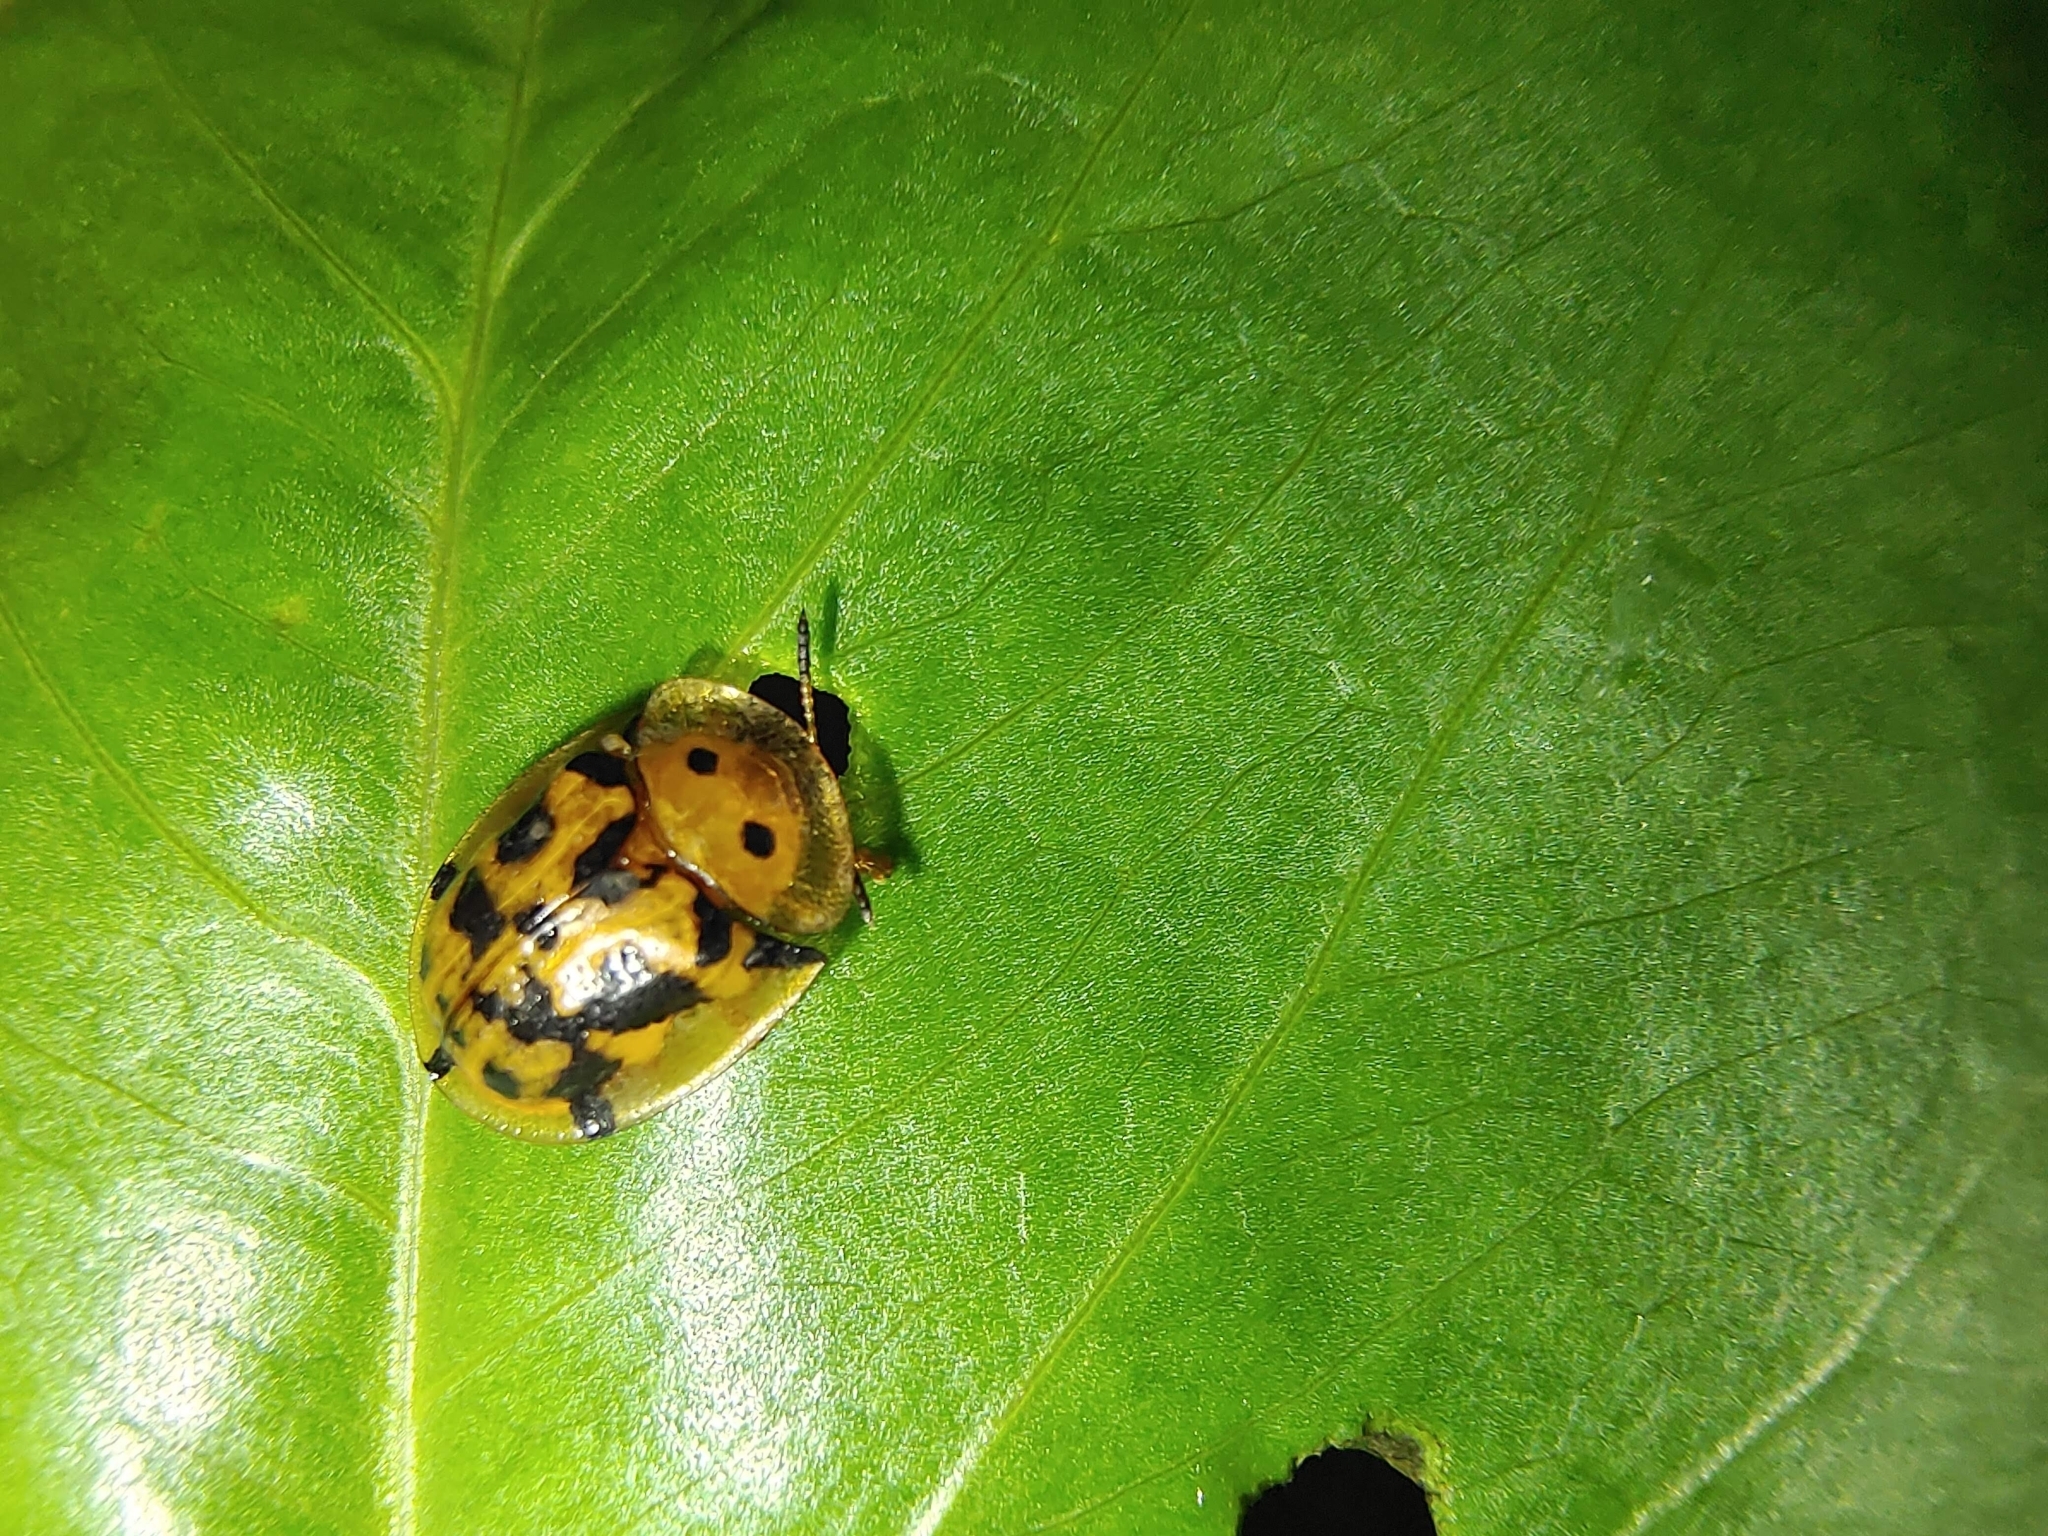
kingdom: Animalia
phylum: Arthropoda
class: Insecta
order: Coleoptera
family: Chrysomelidae
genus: Aspidimorpha
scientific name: Aspidimorpha deusta
